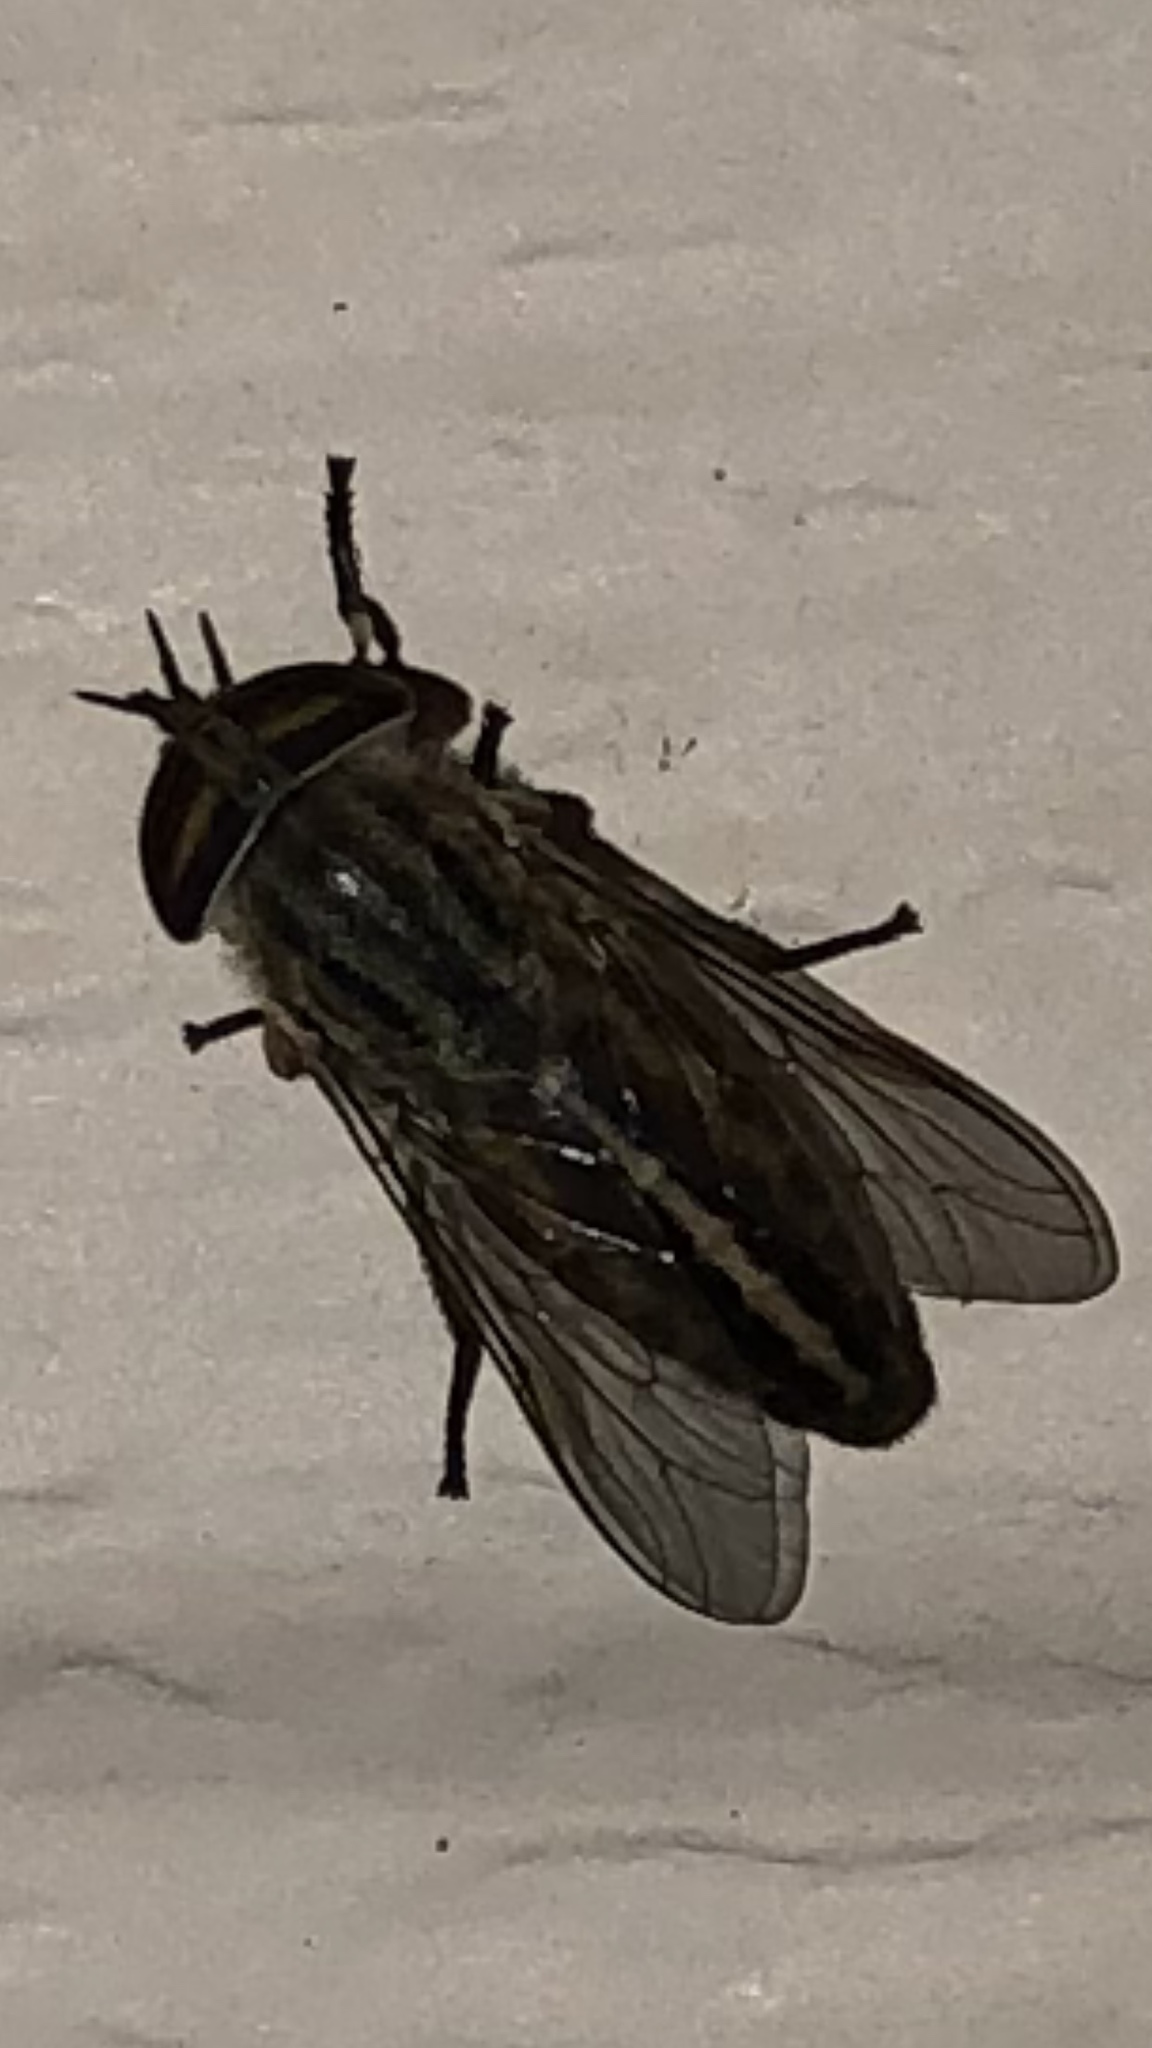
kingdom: Animalia
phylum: Arthropoda
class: Insecta
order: Diptera
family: Tabanidae
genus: Tabanus
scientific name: Tabanus lineola
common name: Striped horse fly
